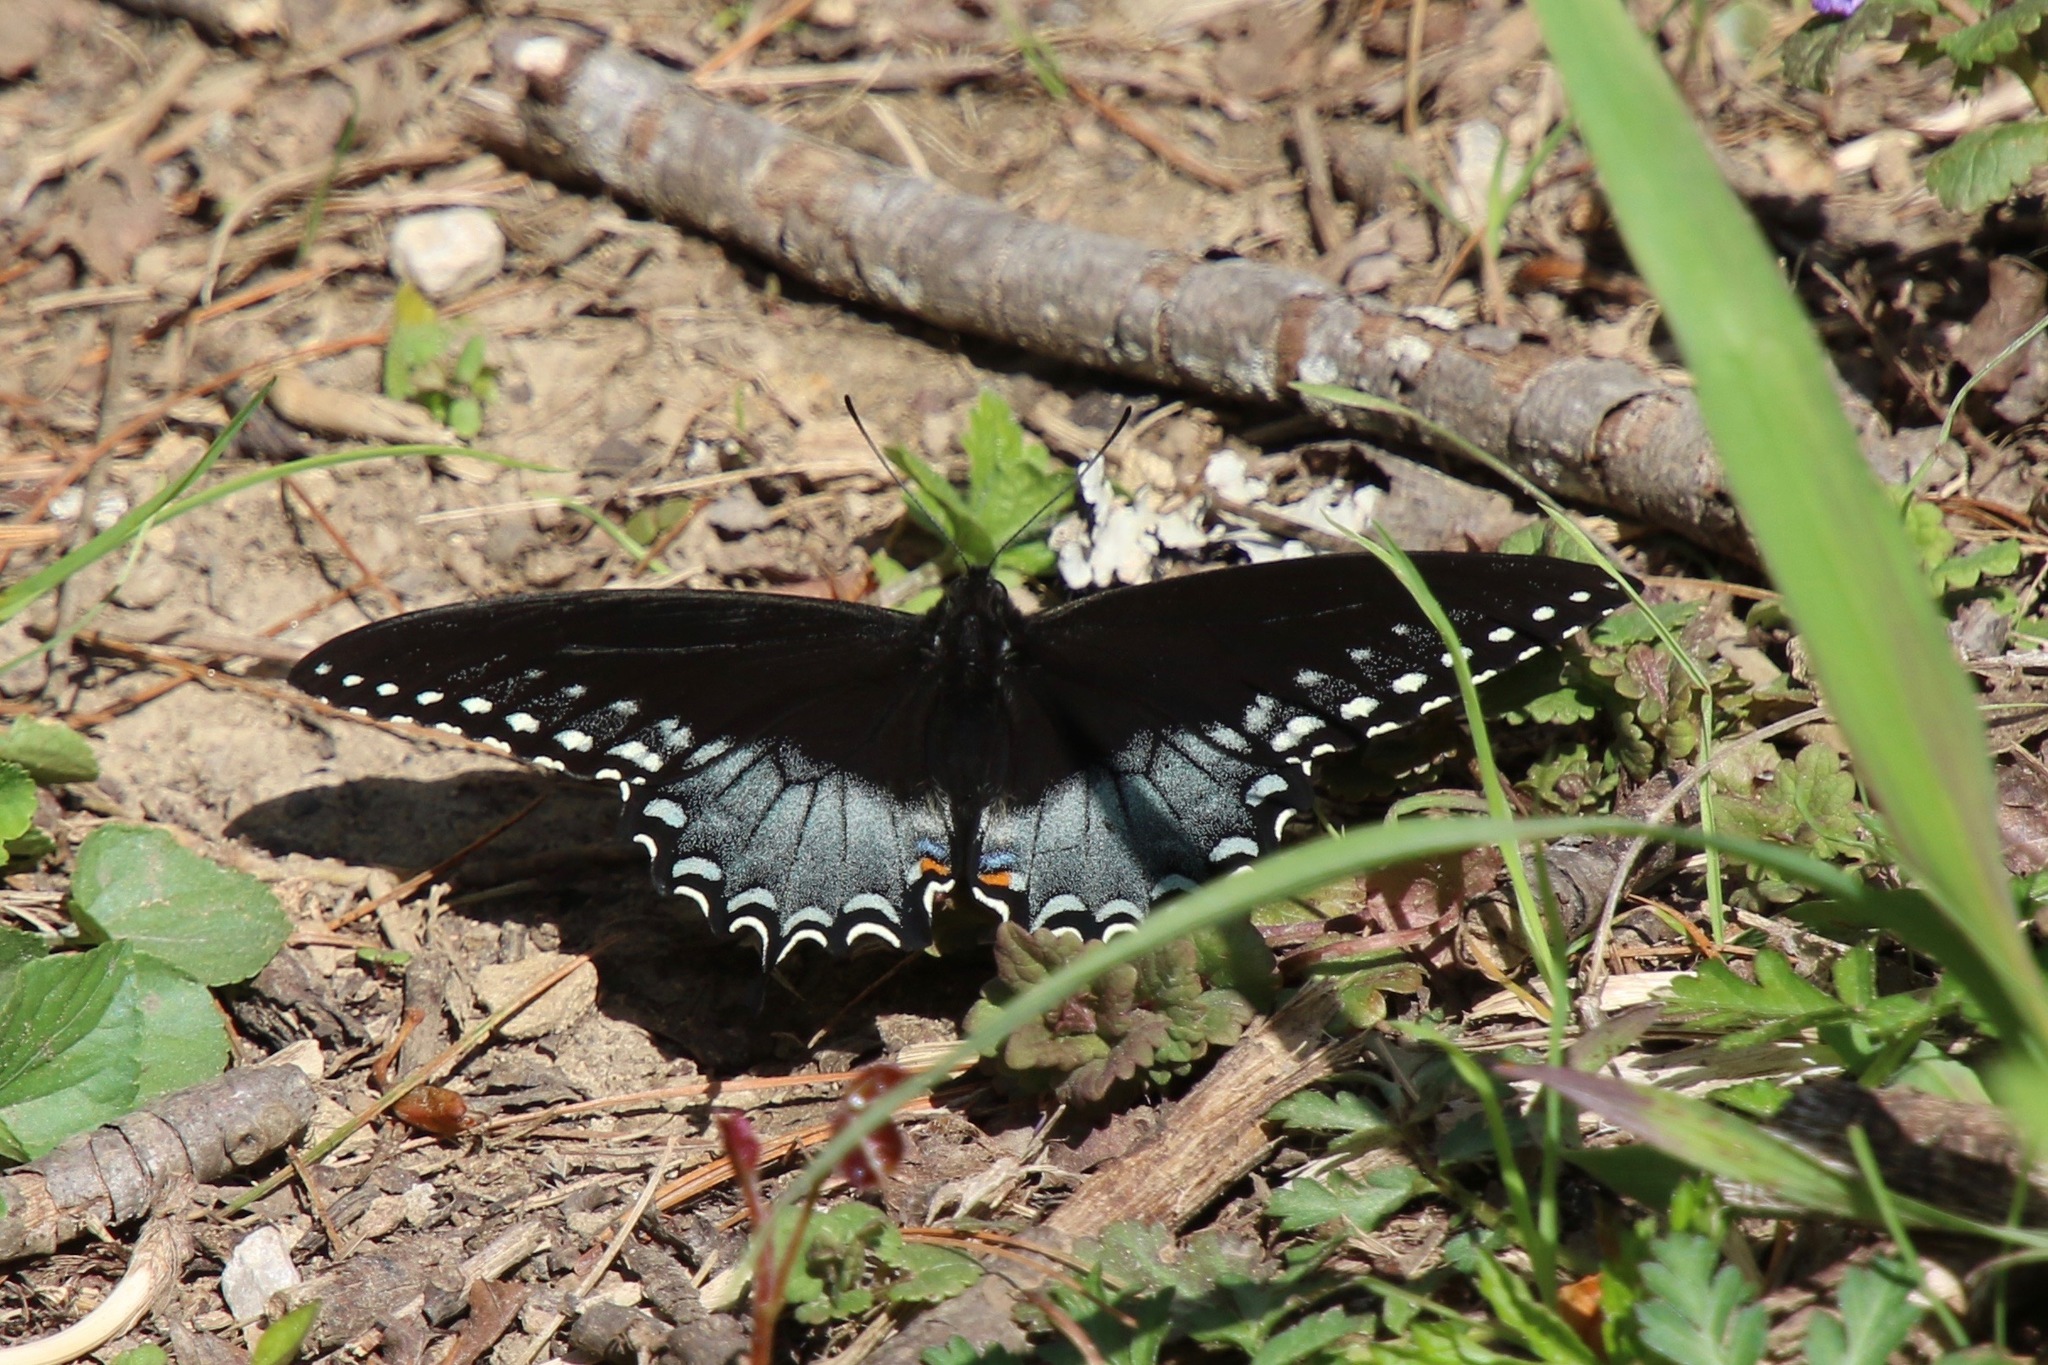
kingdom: Animalia
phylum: Arthropoda
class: Insecta
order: Lepidoptera
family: Papilionidae
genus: Papilio
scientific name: Papilio troilus
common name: Spicebush swallowtail
